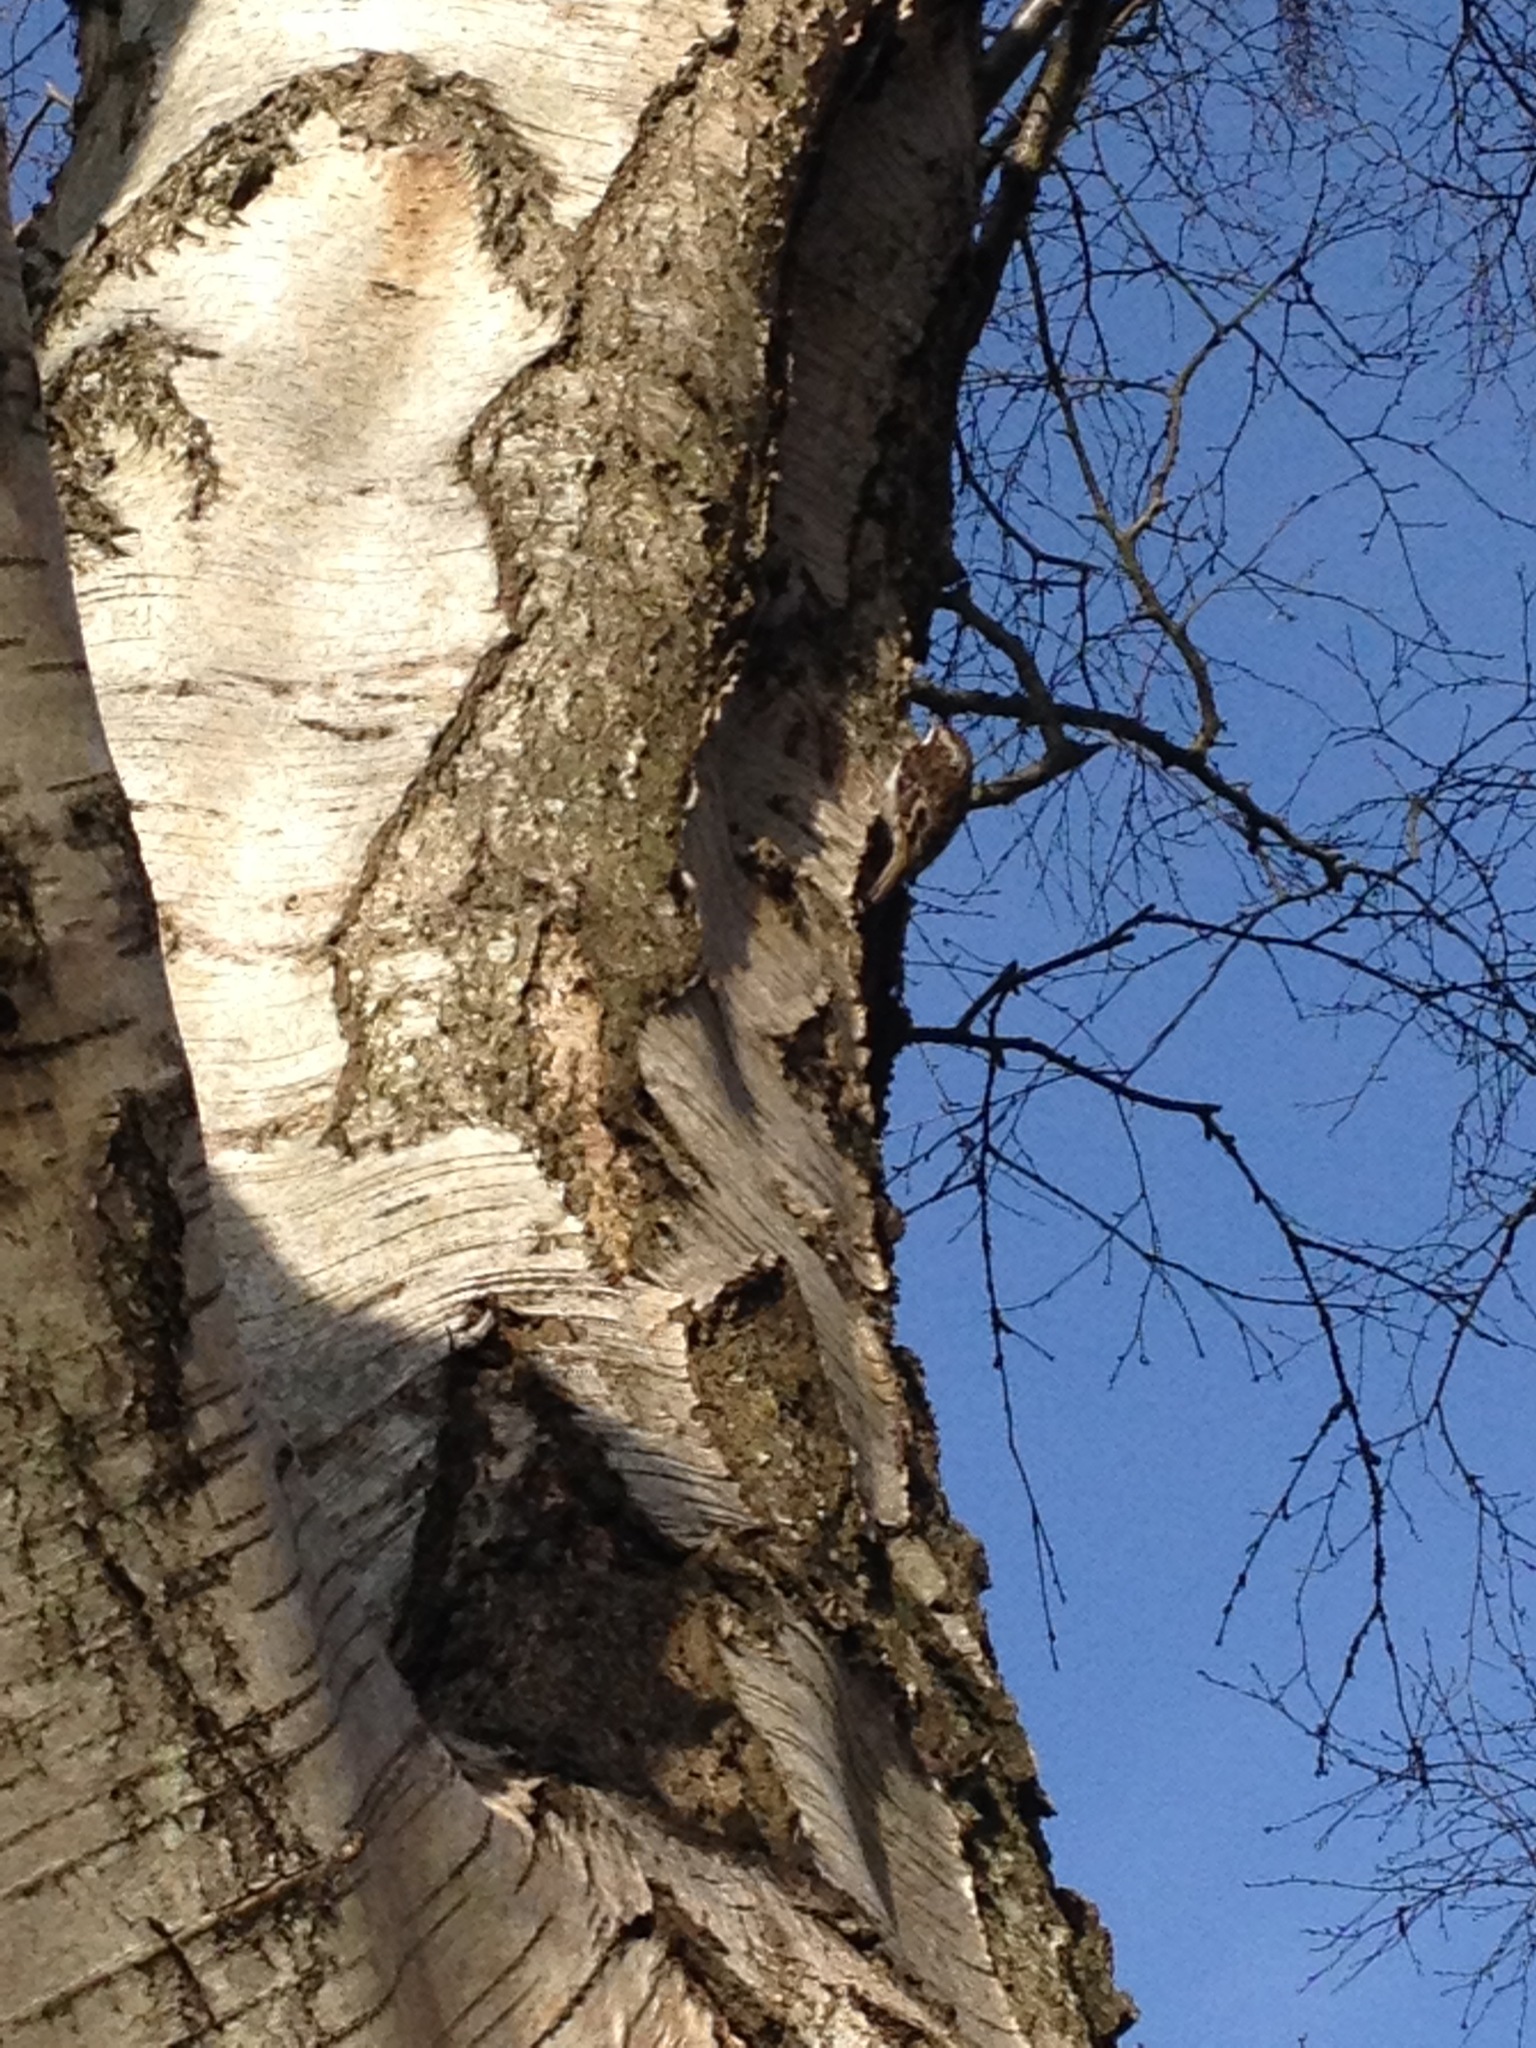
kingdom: Animalia
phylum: Chordata
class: Aves
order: Passeriformes
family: Certhiidae
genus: Certhia
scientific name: Certhia familiaris
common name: Eurasian treecreeper
